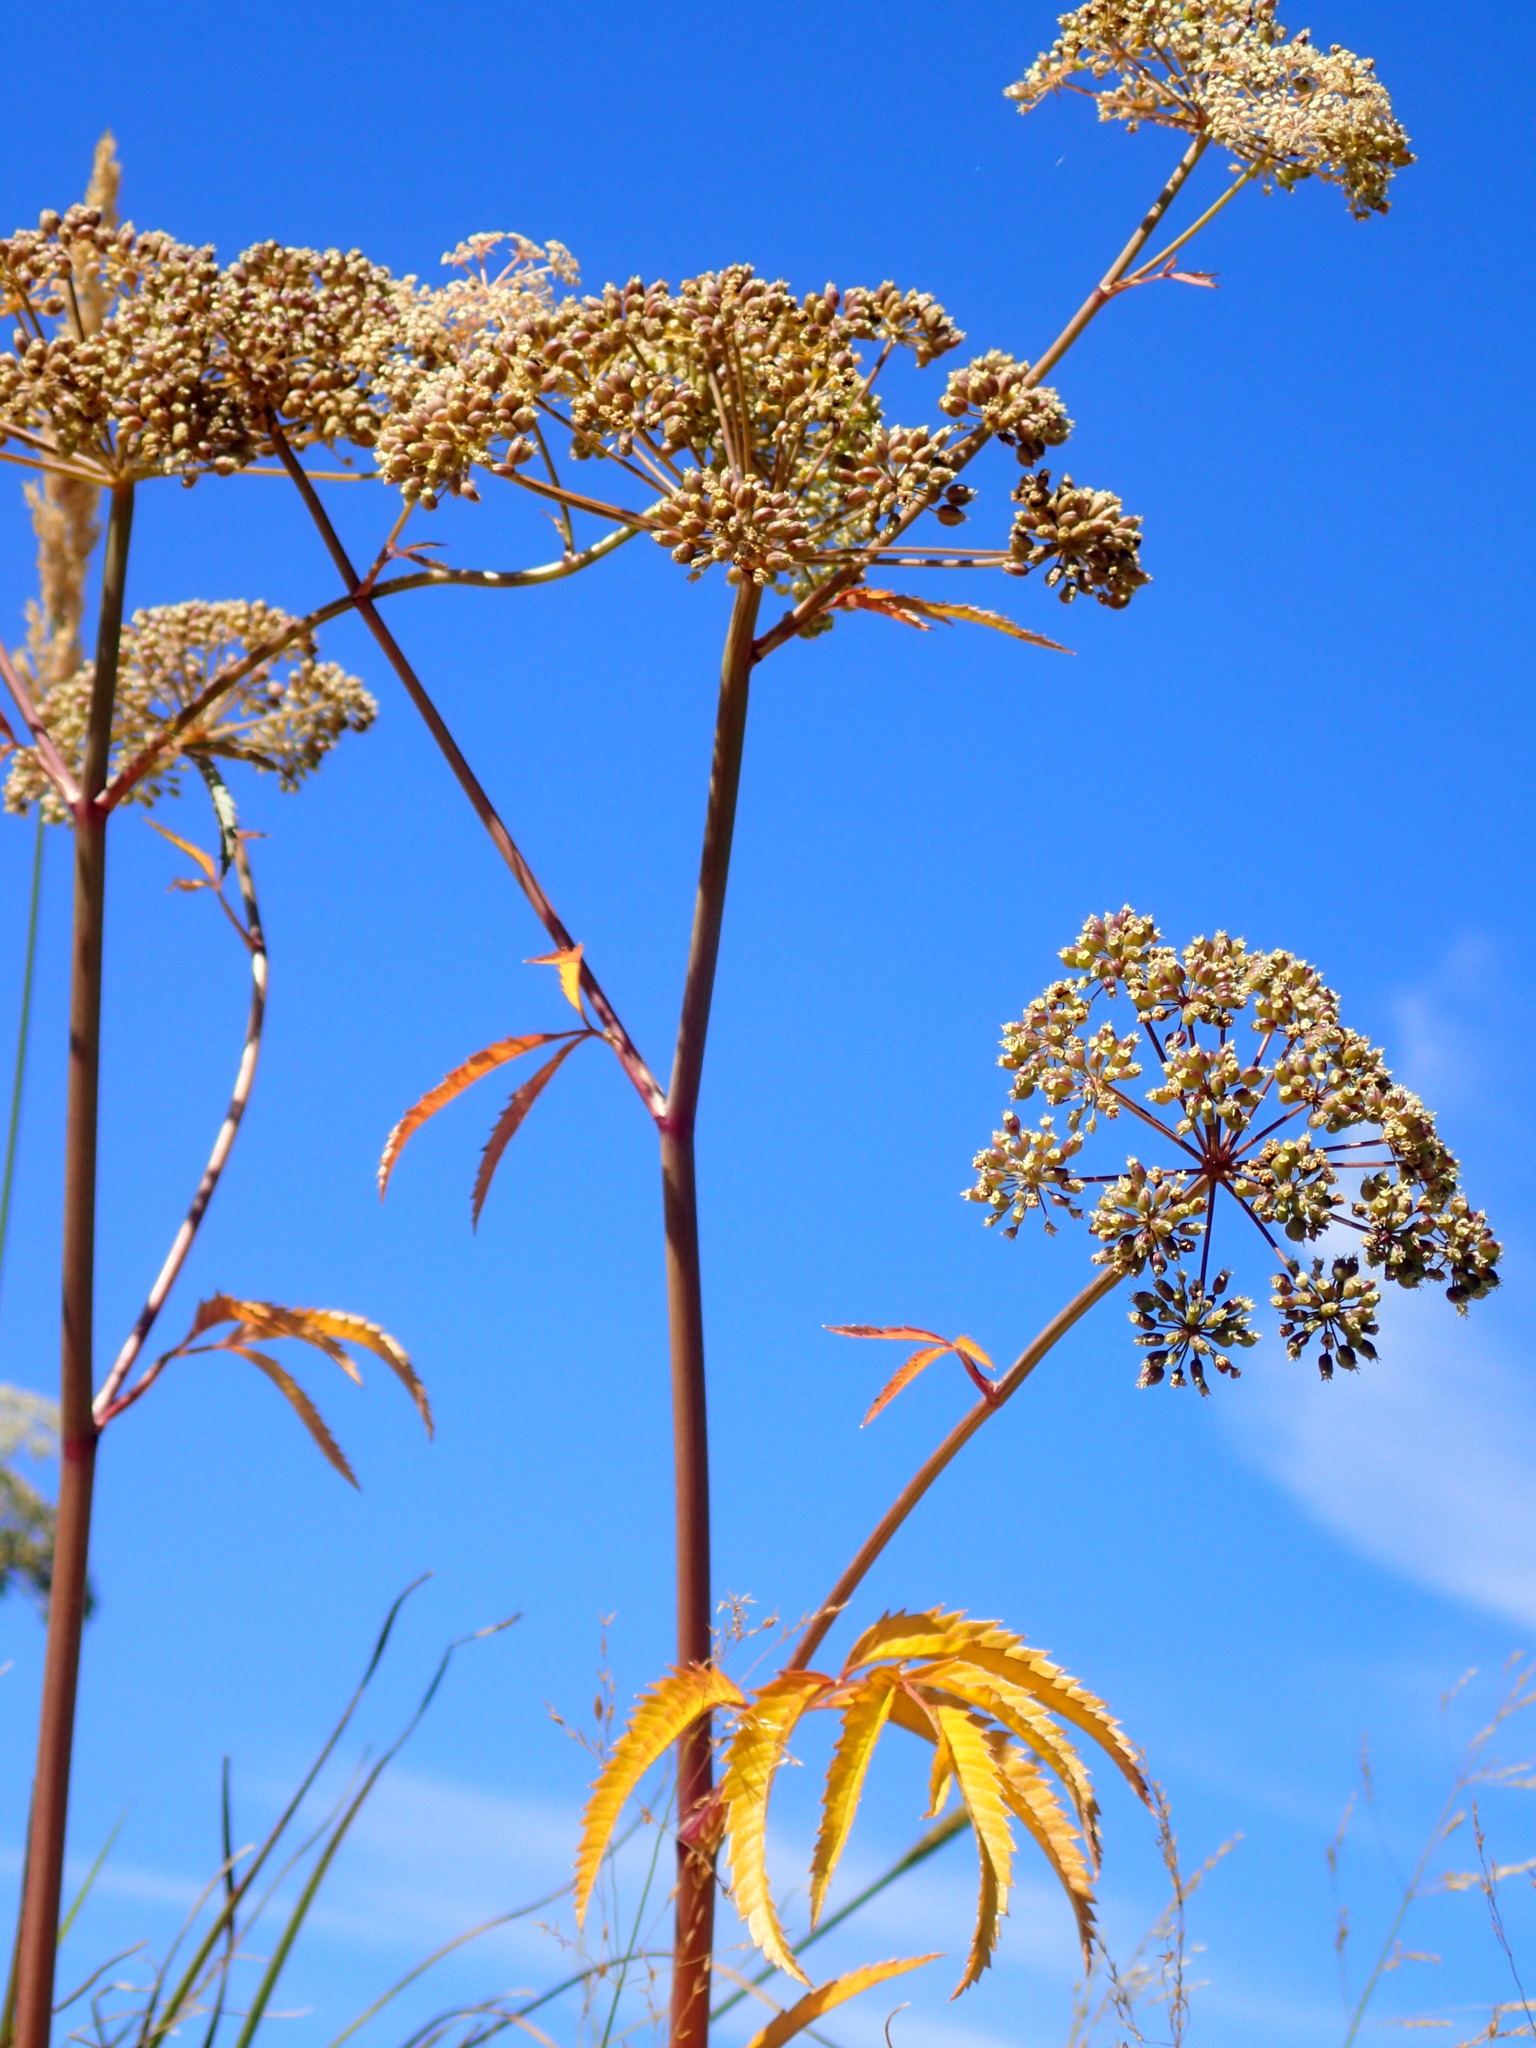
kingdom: Plantae
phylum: Tracheophyta
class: Magnoliopsida
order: Apiales
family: Apiaceae
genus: Cicuta
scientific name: Cicuta maculata
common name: Spotted cowbane
